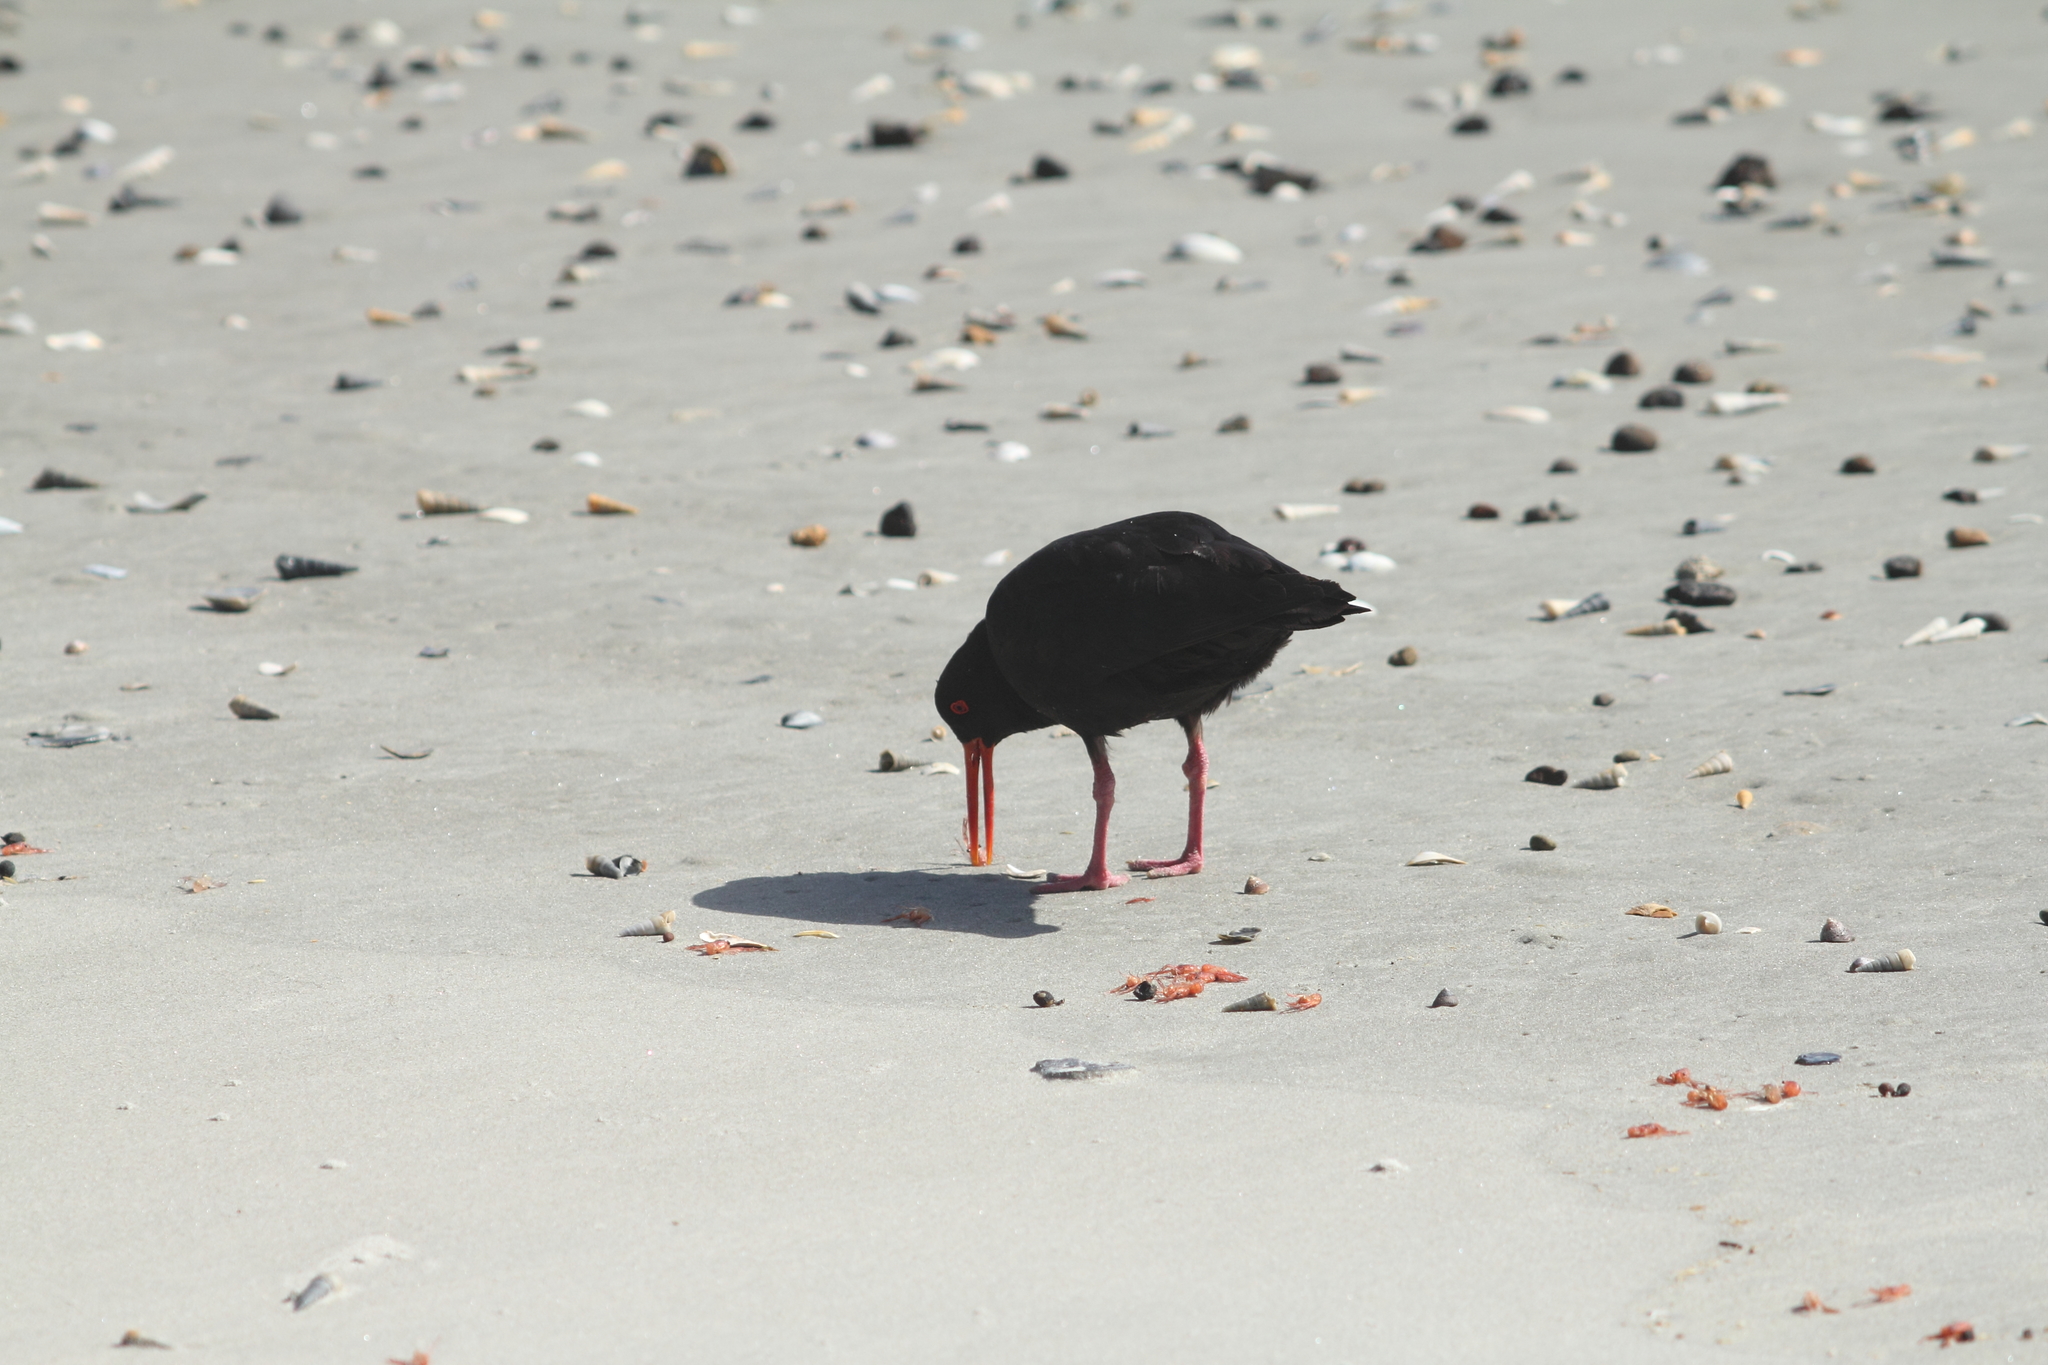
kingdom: Animalia
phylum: Chordata
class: Aves
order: Charadriiformes
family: Haematopodidae
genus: Haematopus
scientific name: Haematopus unicolor
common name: Variable oystercatcher
